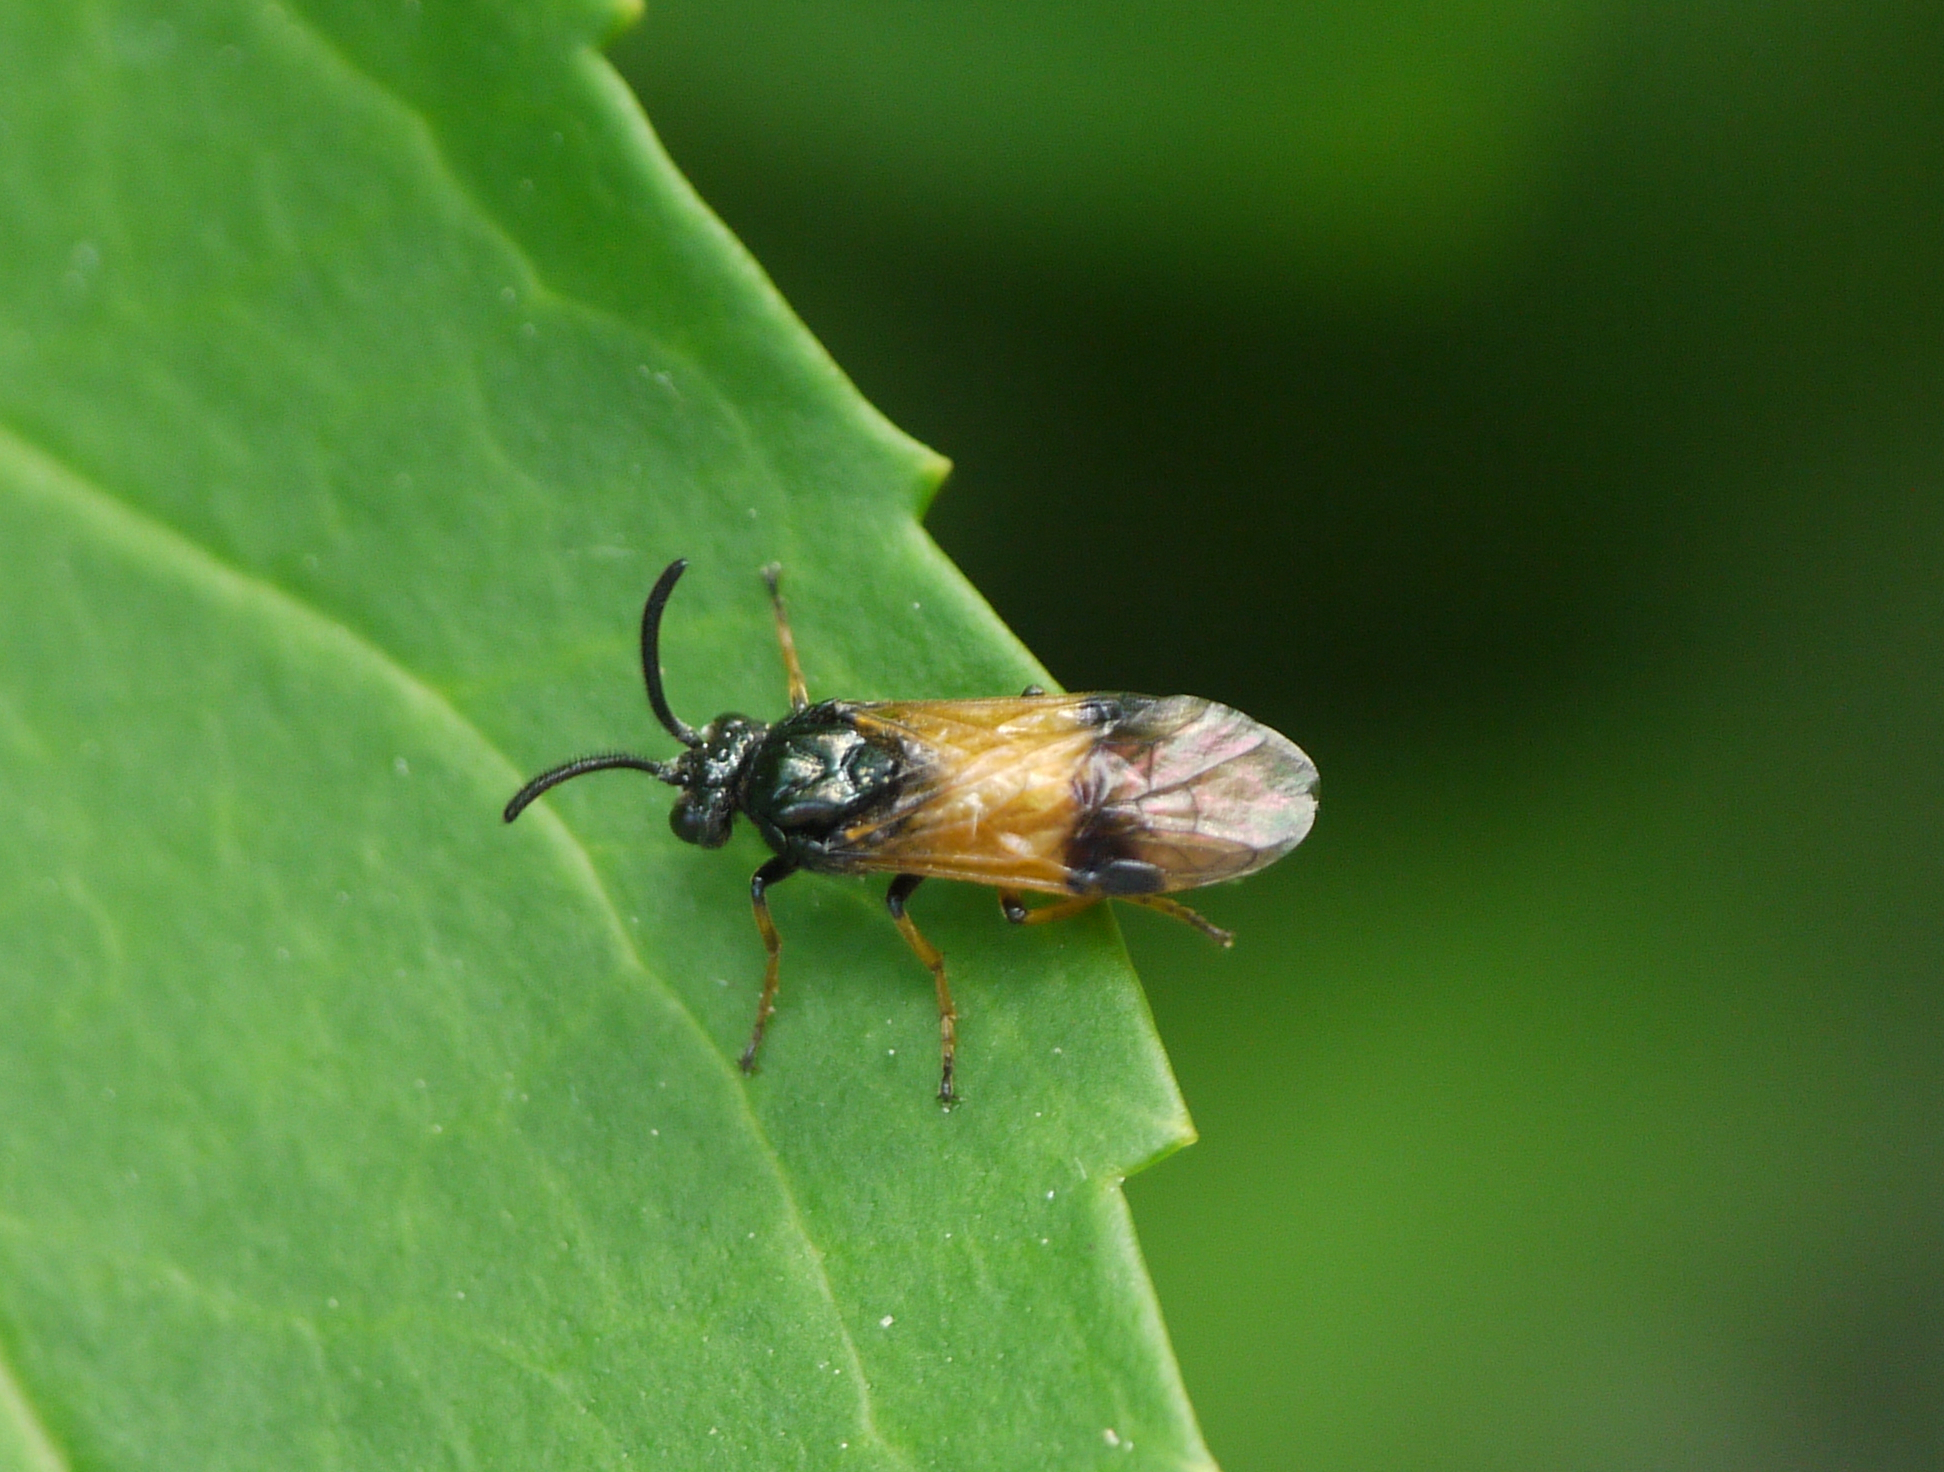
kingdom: Animalia
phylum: Arthropoda
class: Insecta
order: Hymenoptera
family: Argidae
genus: Arge
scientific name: Arge cyanocrocea
